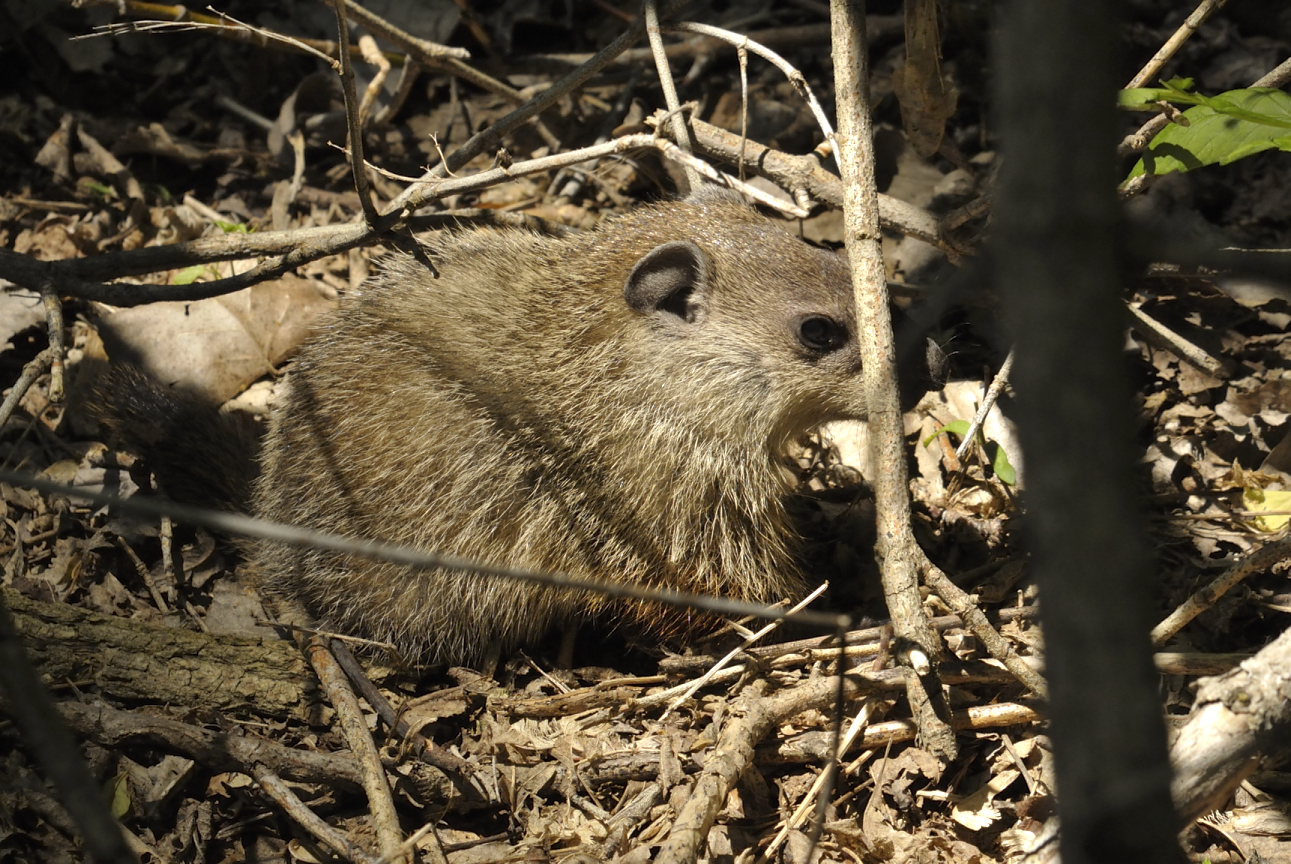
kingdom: Animalia
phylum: Chordata
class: Mammalia
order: Rodentia
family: Sciuridae
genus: Marmota
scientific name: Marmota monax
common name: Groundhog
